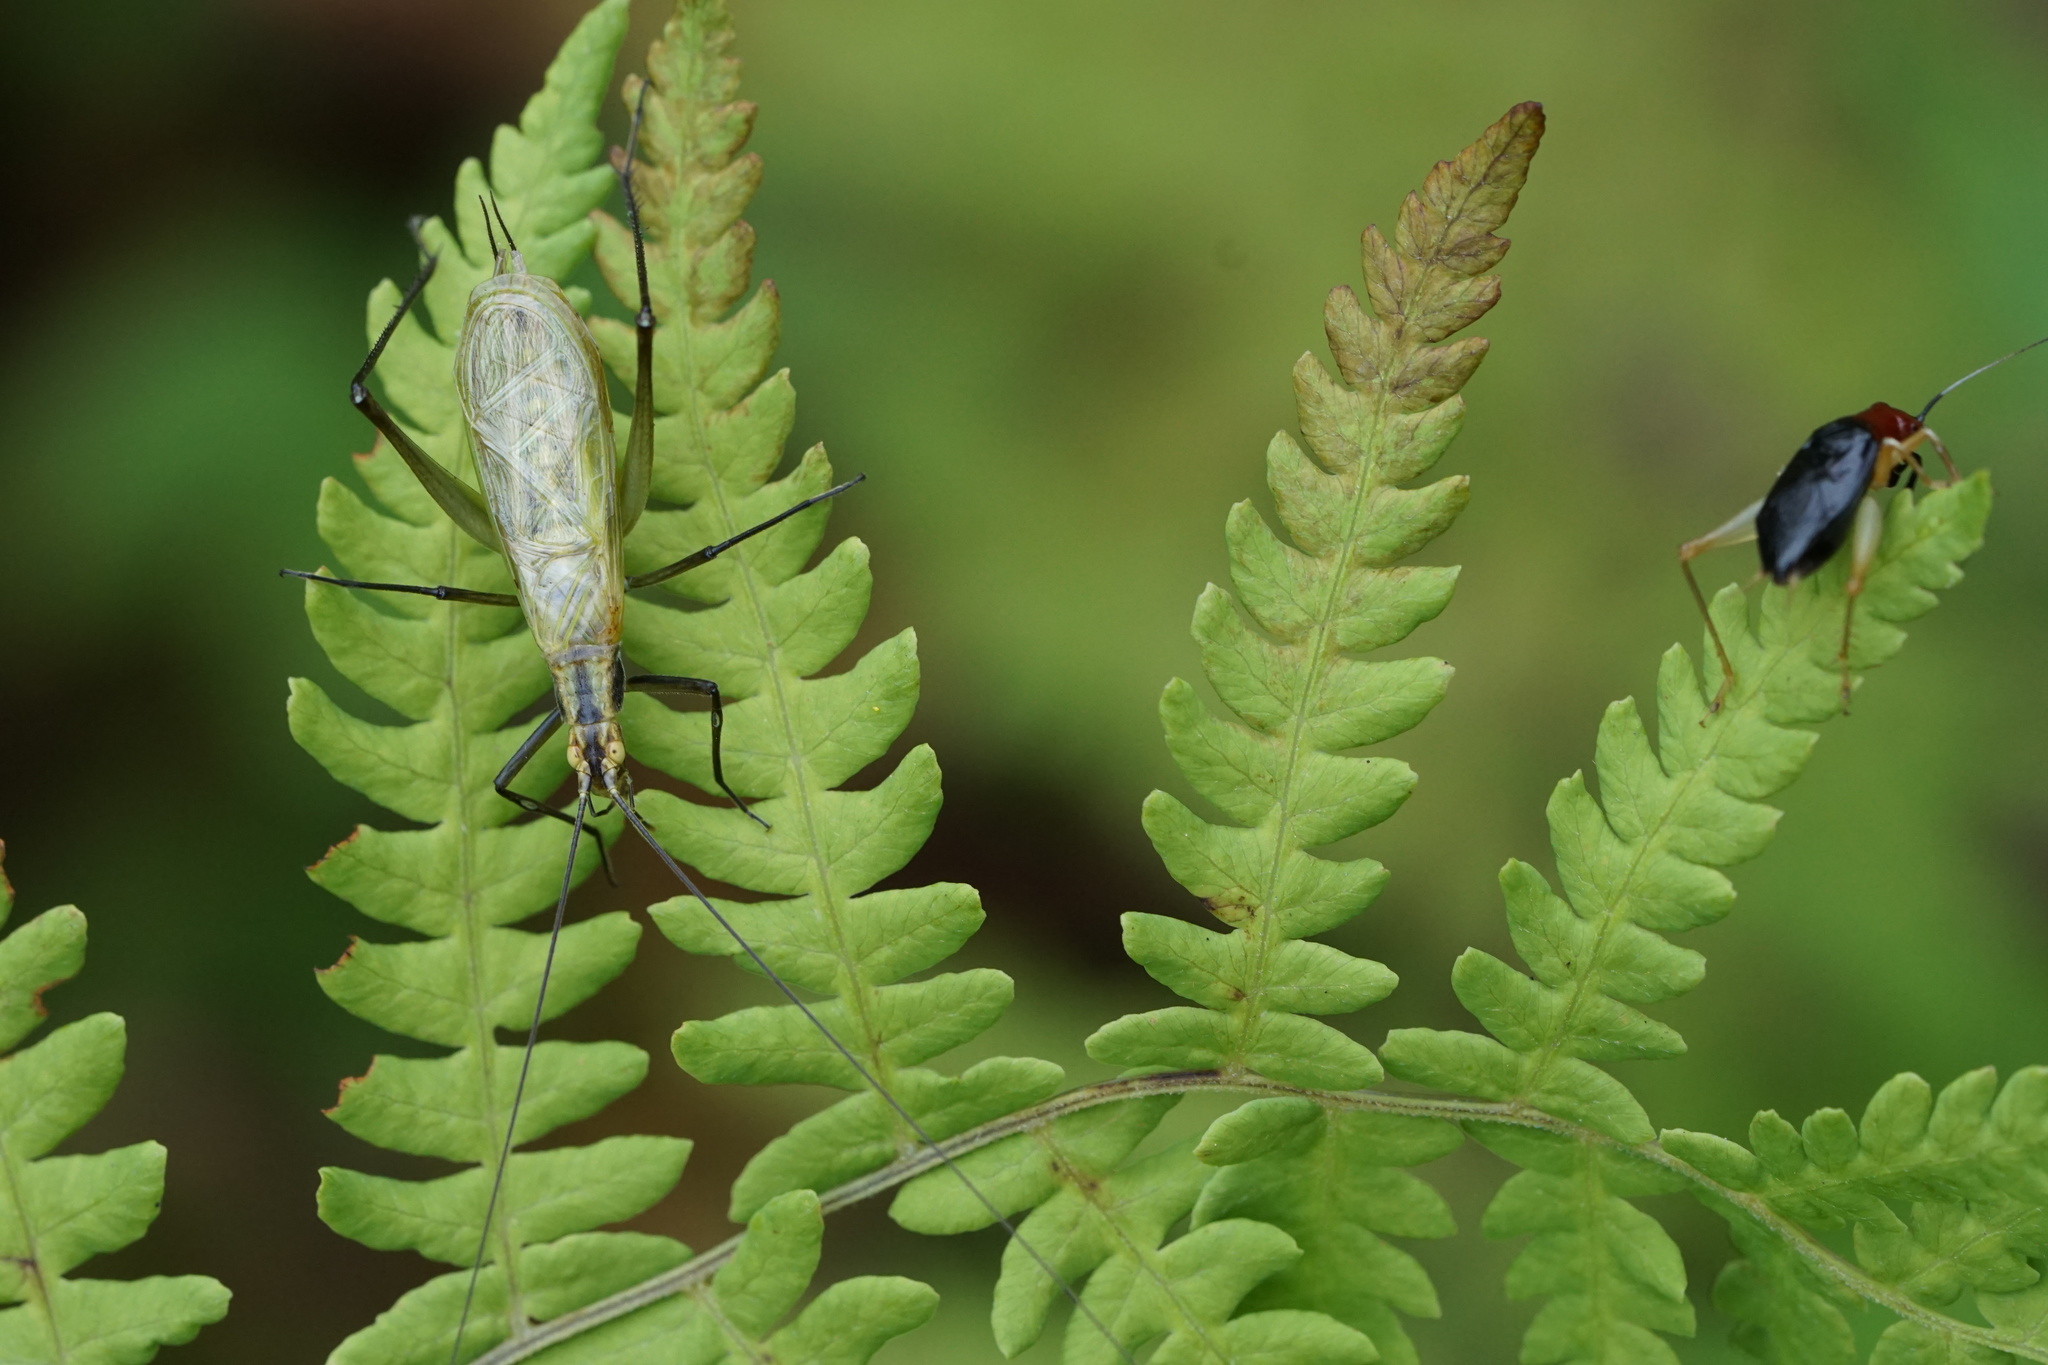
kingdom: Animalia
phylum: Arthropoda
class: Insecta
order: Orthoptera
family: Gryllidae
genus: Oecanthus
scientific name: Oecanthus nigricornis
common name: Black-horned tree cricket
